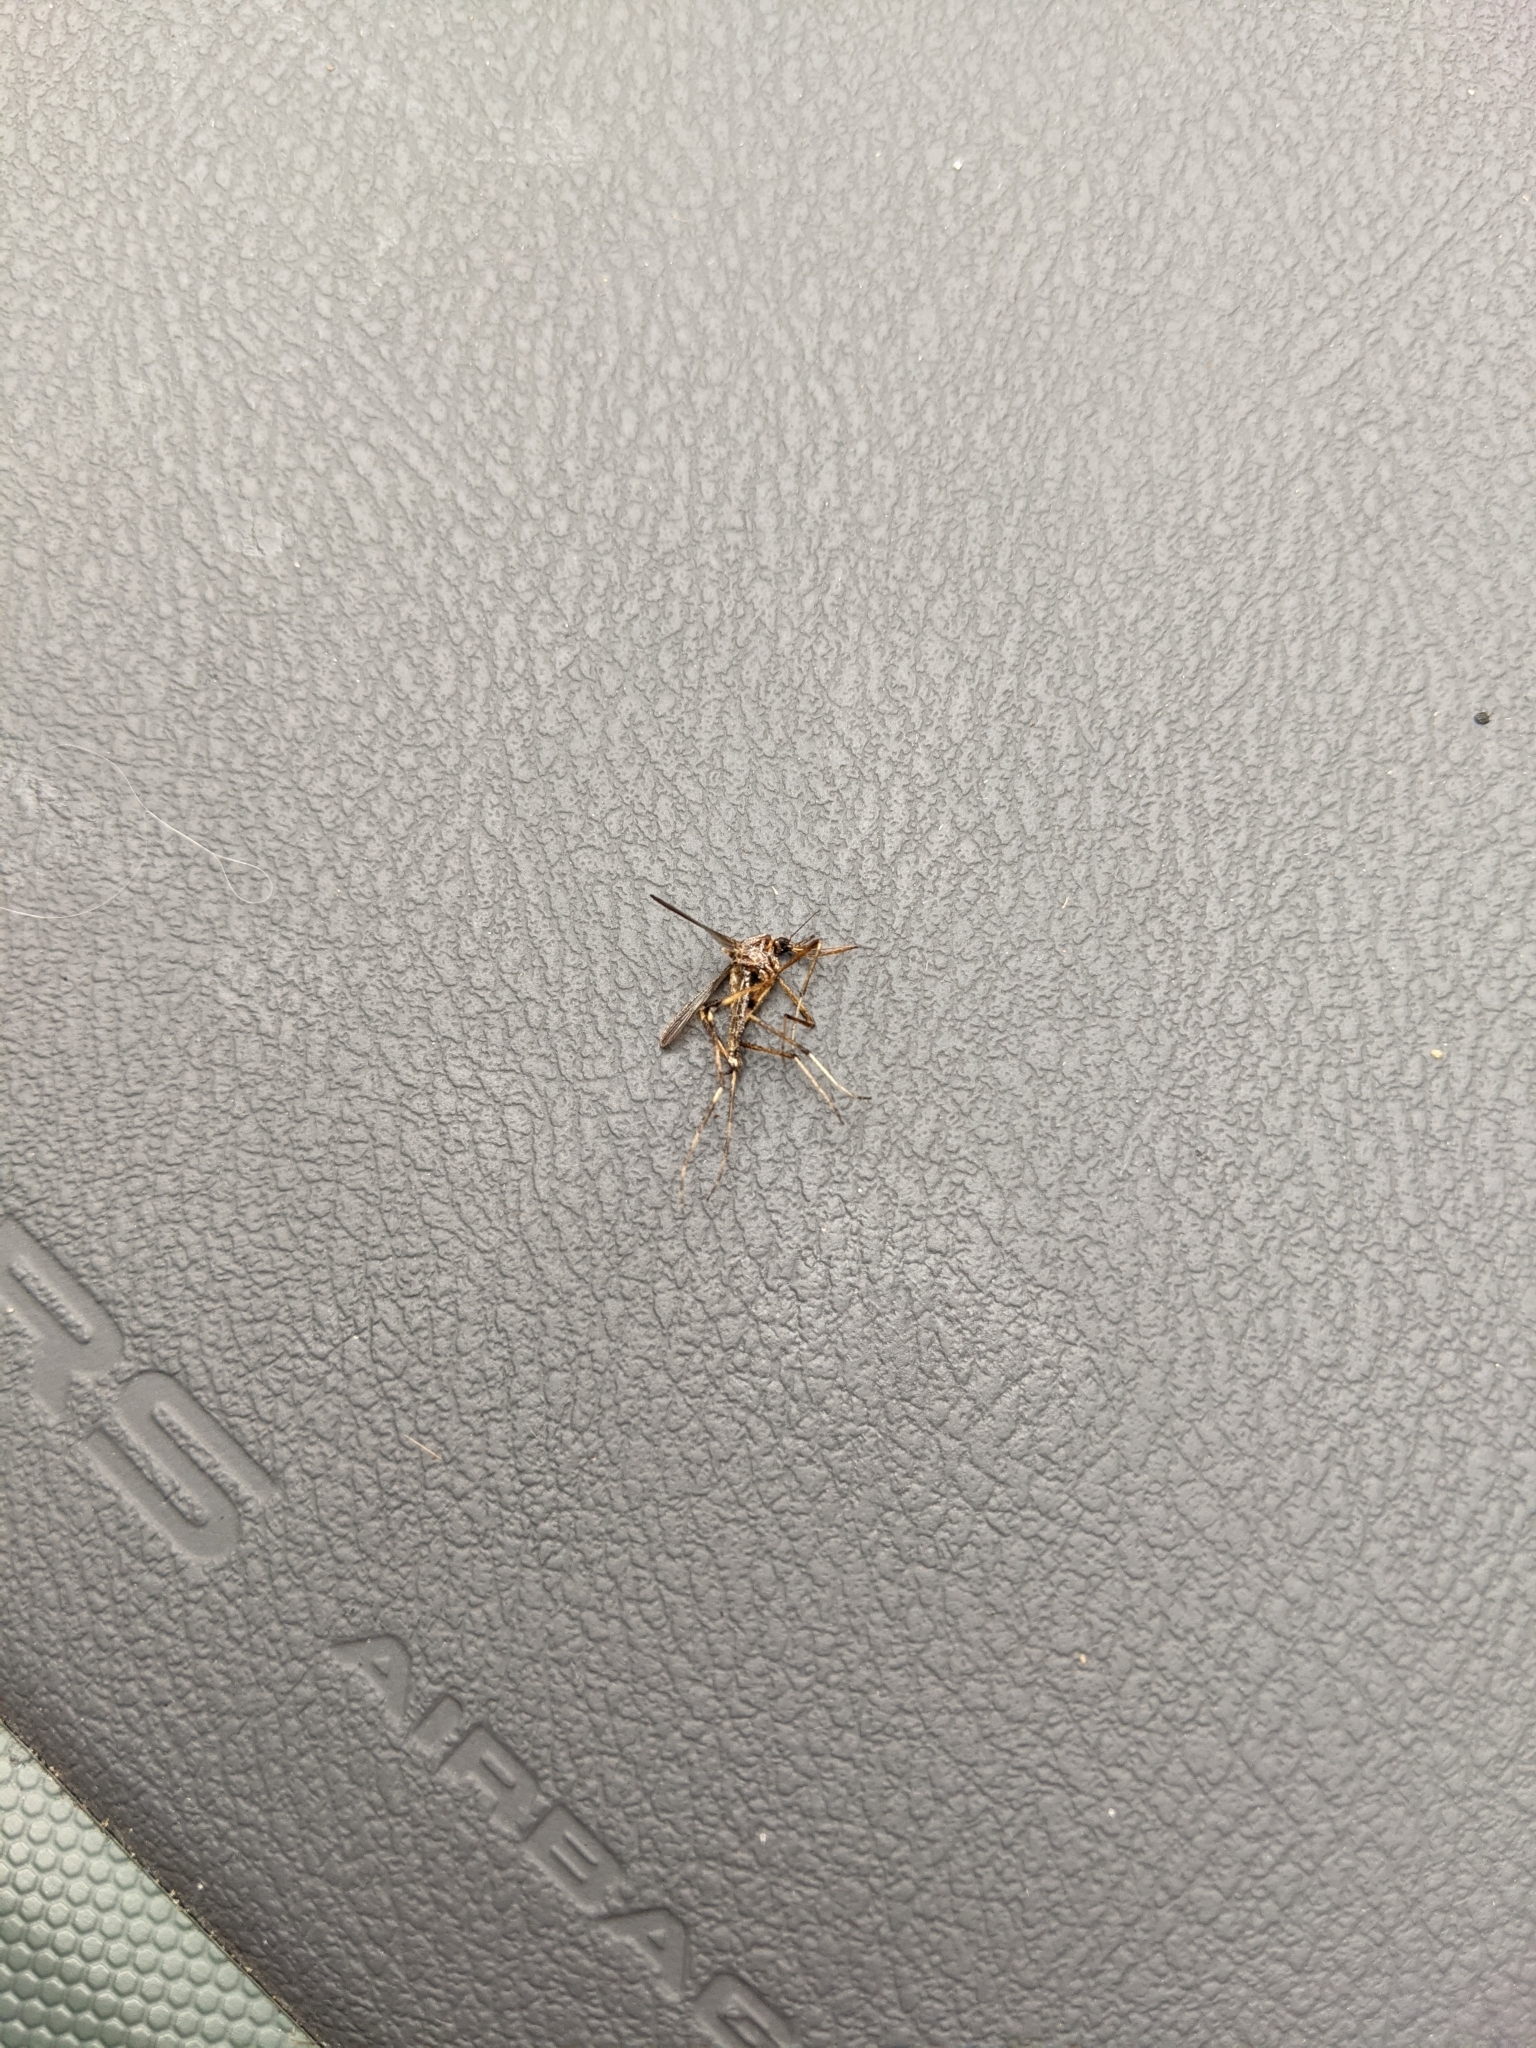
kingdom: Animalia
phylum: Arthropoda
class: Insecta
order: Diptera
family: Culicidae
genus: Psorophora
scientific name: Psorophora ciliata
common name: Gallinipper
